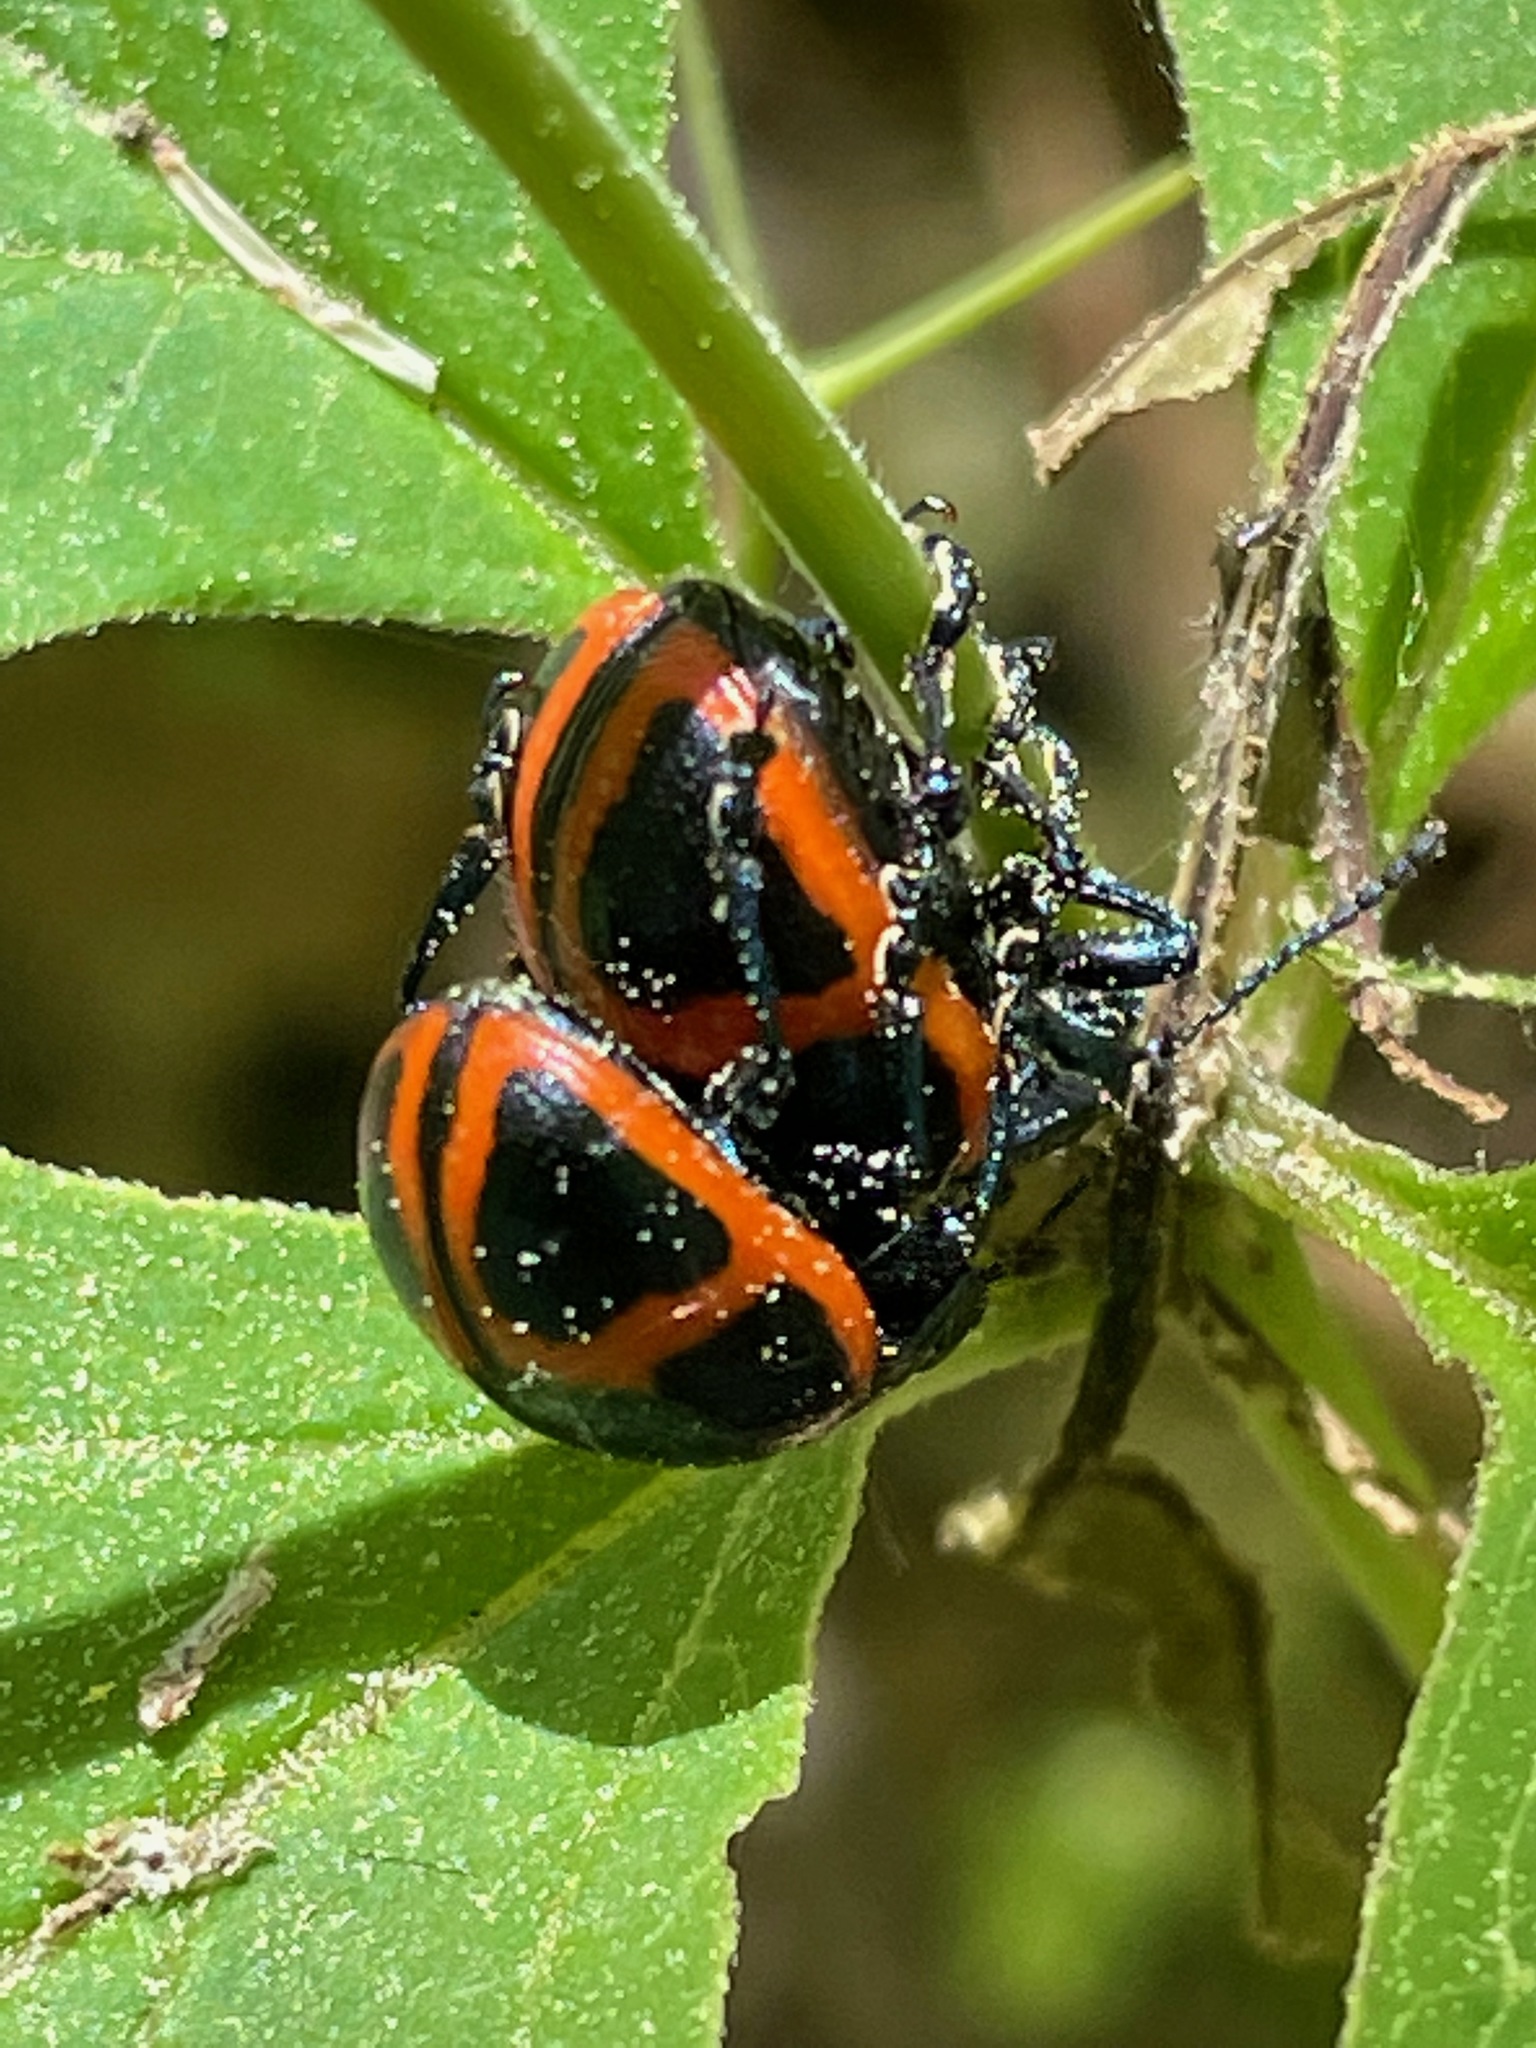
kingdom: Animalia
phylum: Arthropoda
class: Insecta
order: Coleoptera
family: Chrysomelidae
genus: Labidomera
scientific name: Labidomera clivicollis
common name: Swamp milkweed leaf beetle
